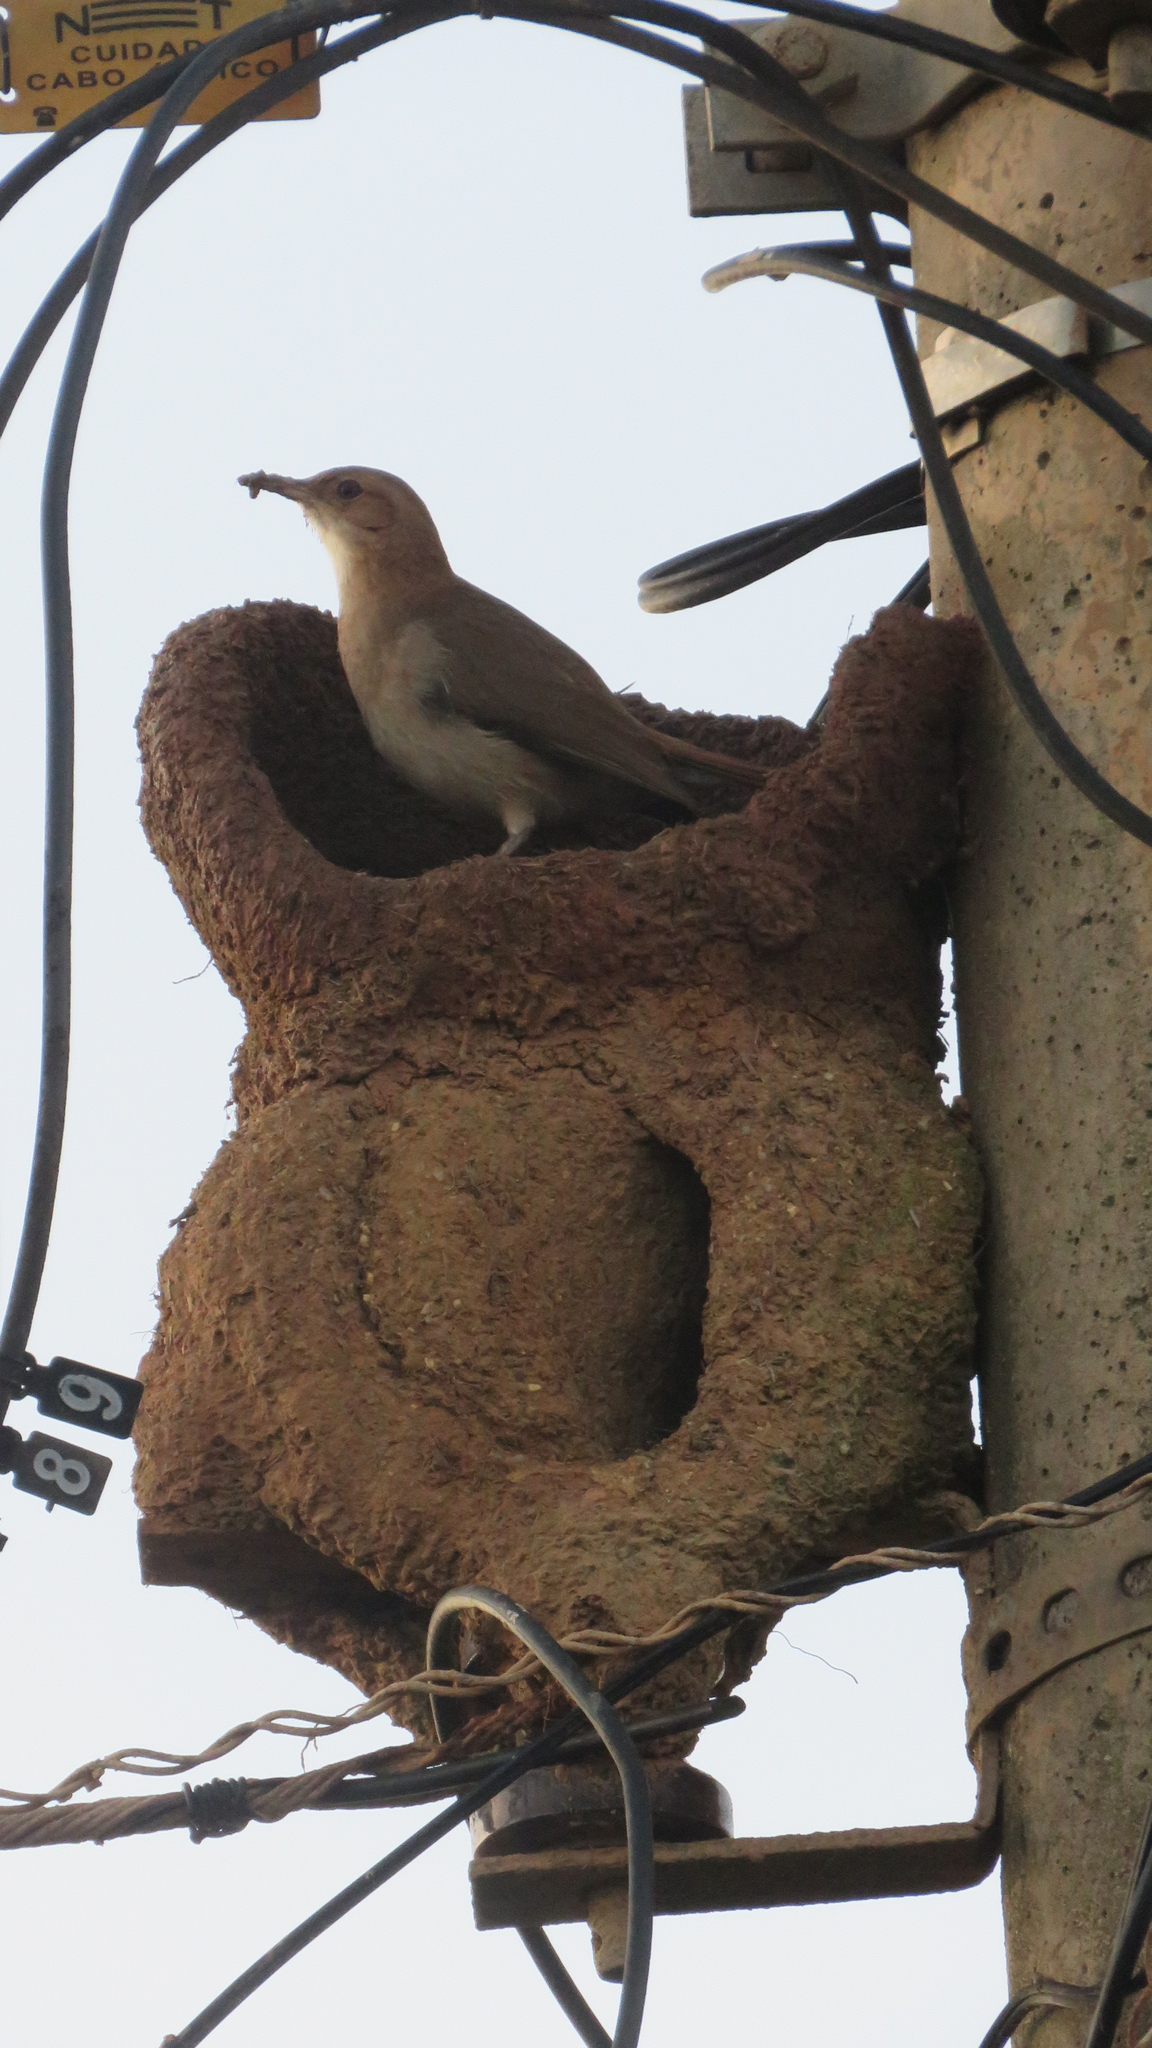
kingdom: Animalia
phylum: Chordata
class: Aves
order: Passeriformes
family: Furnariidae
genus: Furnarius
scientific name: Furnarius rufus
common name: Rufous hornero
